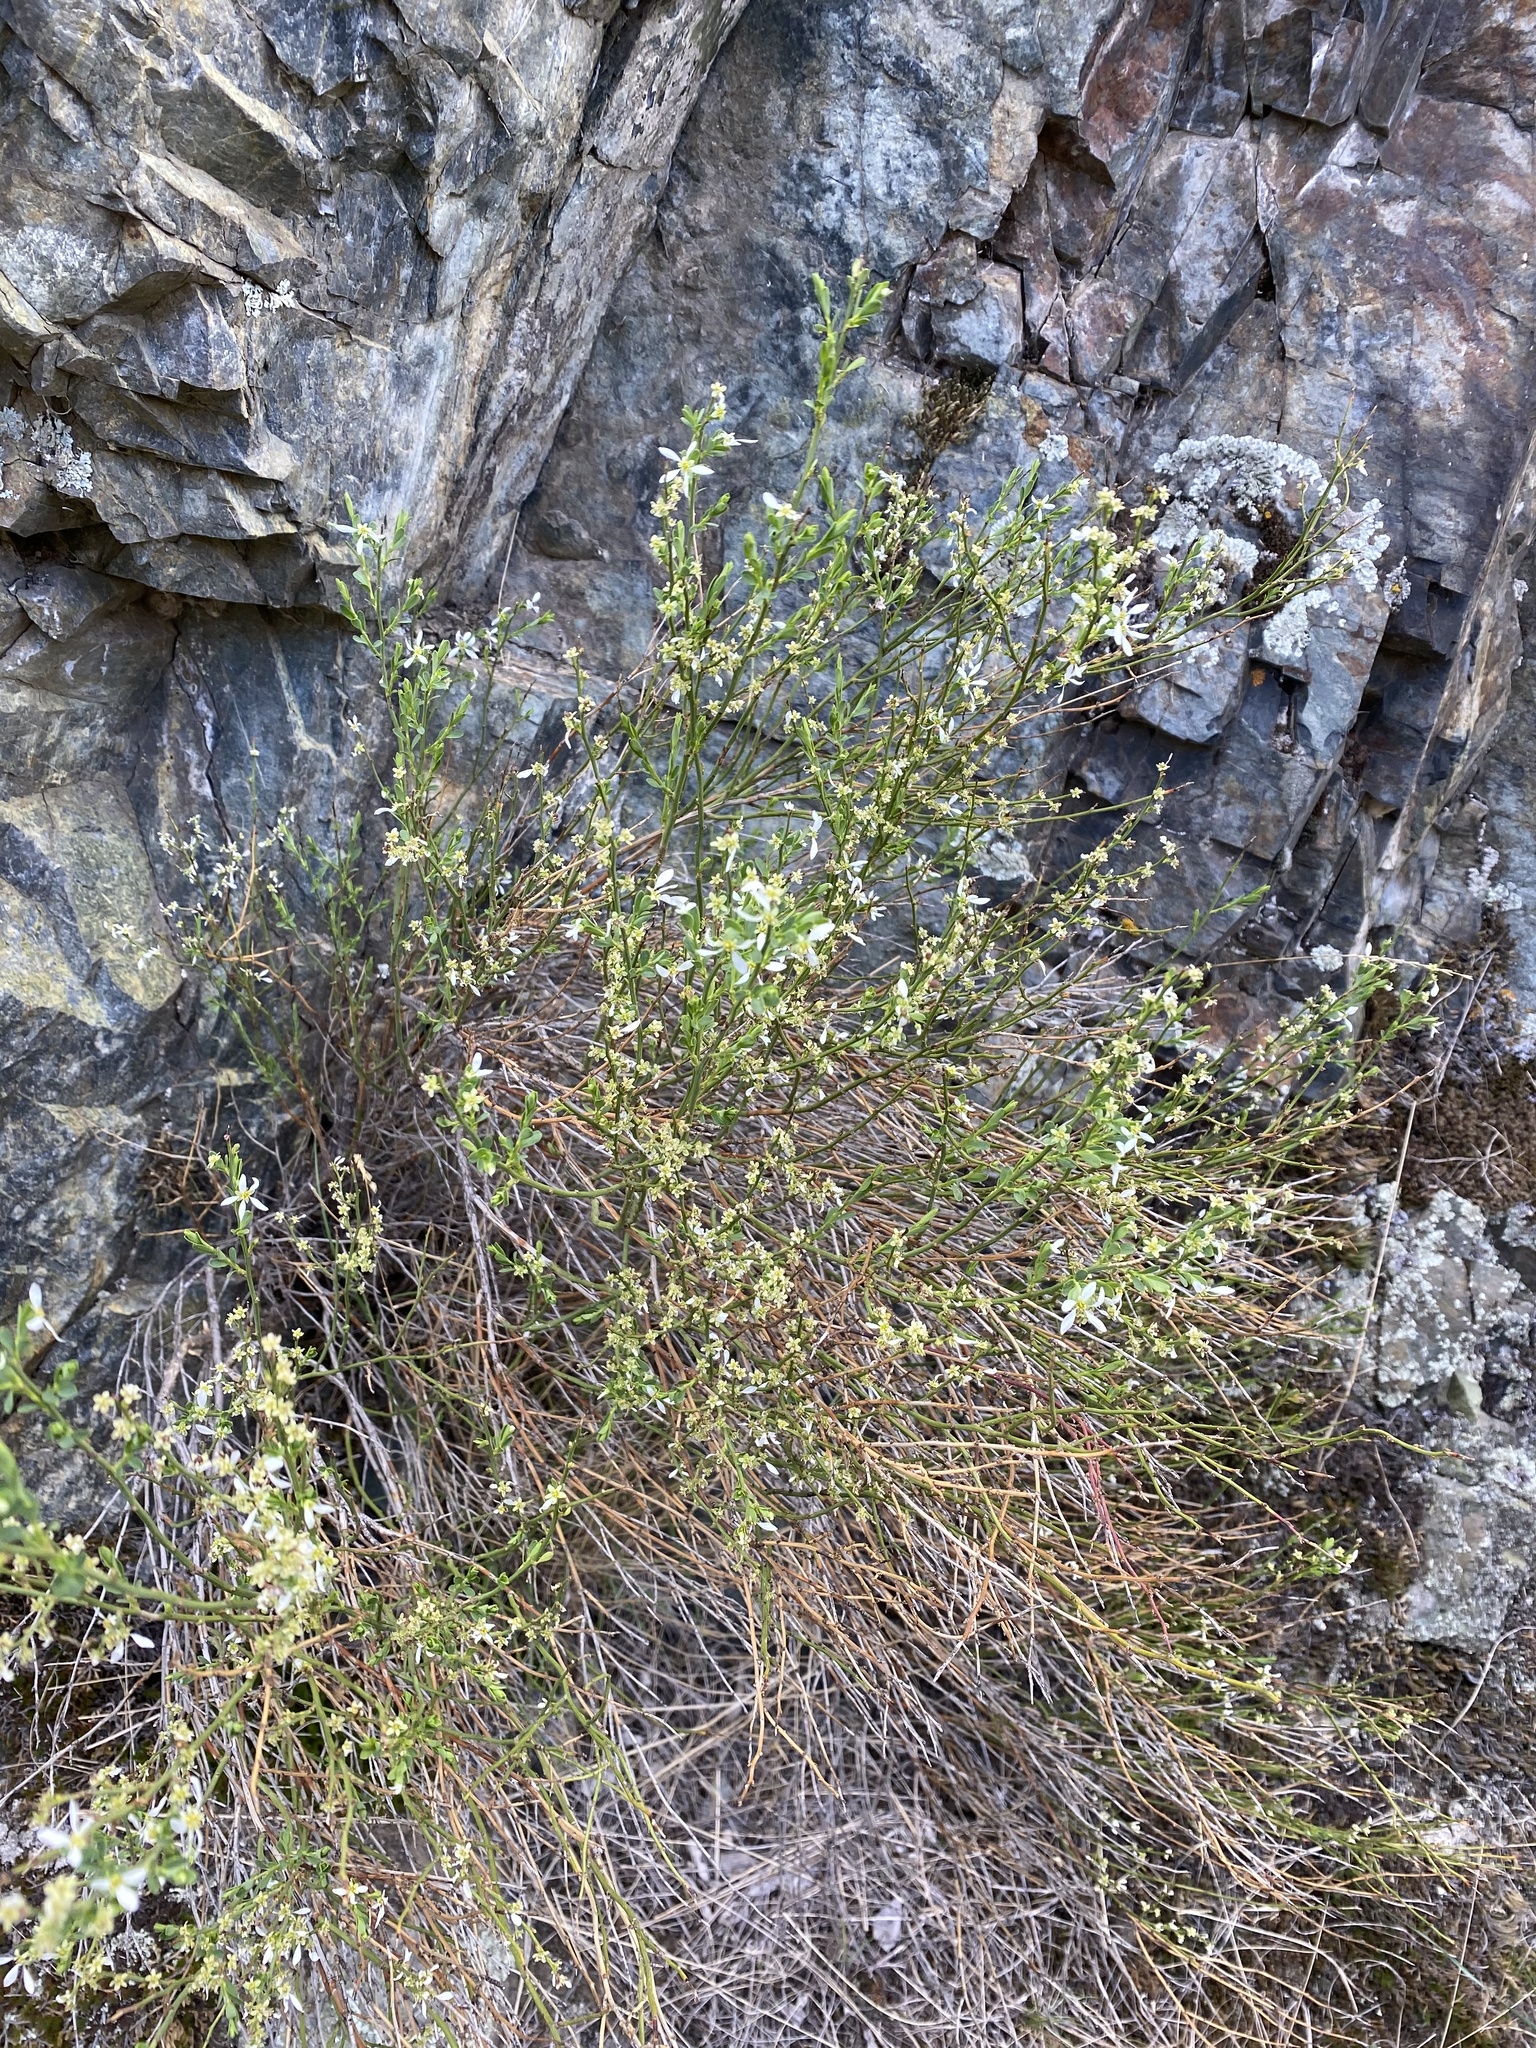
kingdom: Plantae
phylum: Tracheophyta
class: Magnoliopsida
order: Crossosomatales
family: Crossosomataceae
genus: Glossopetalon
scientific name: Glossopetalon spinescens
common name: Spring greasebush
